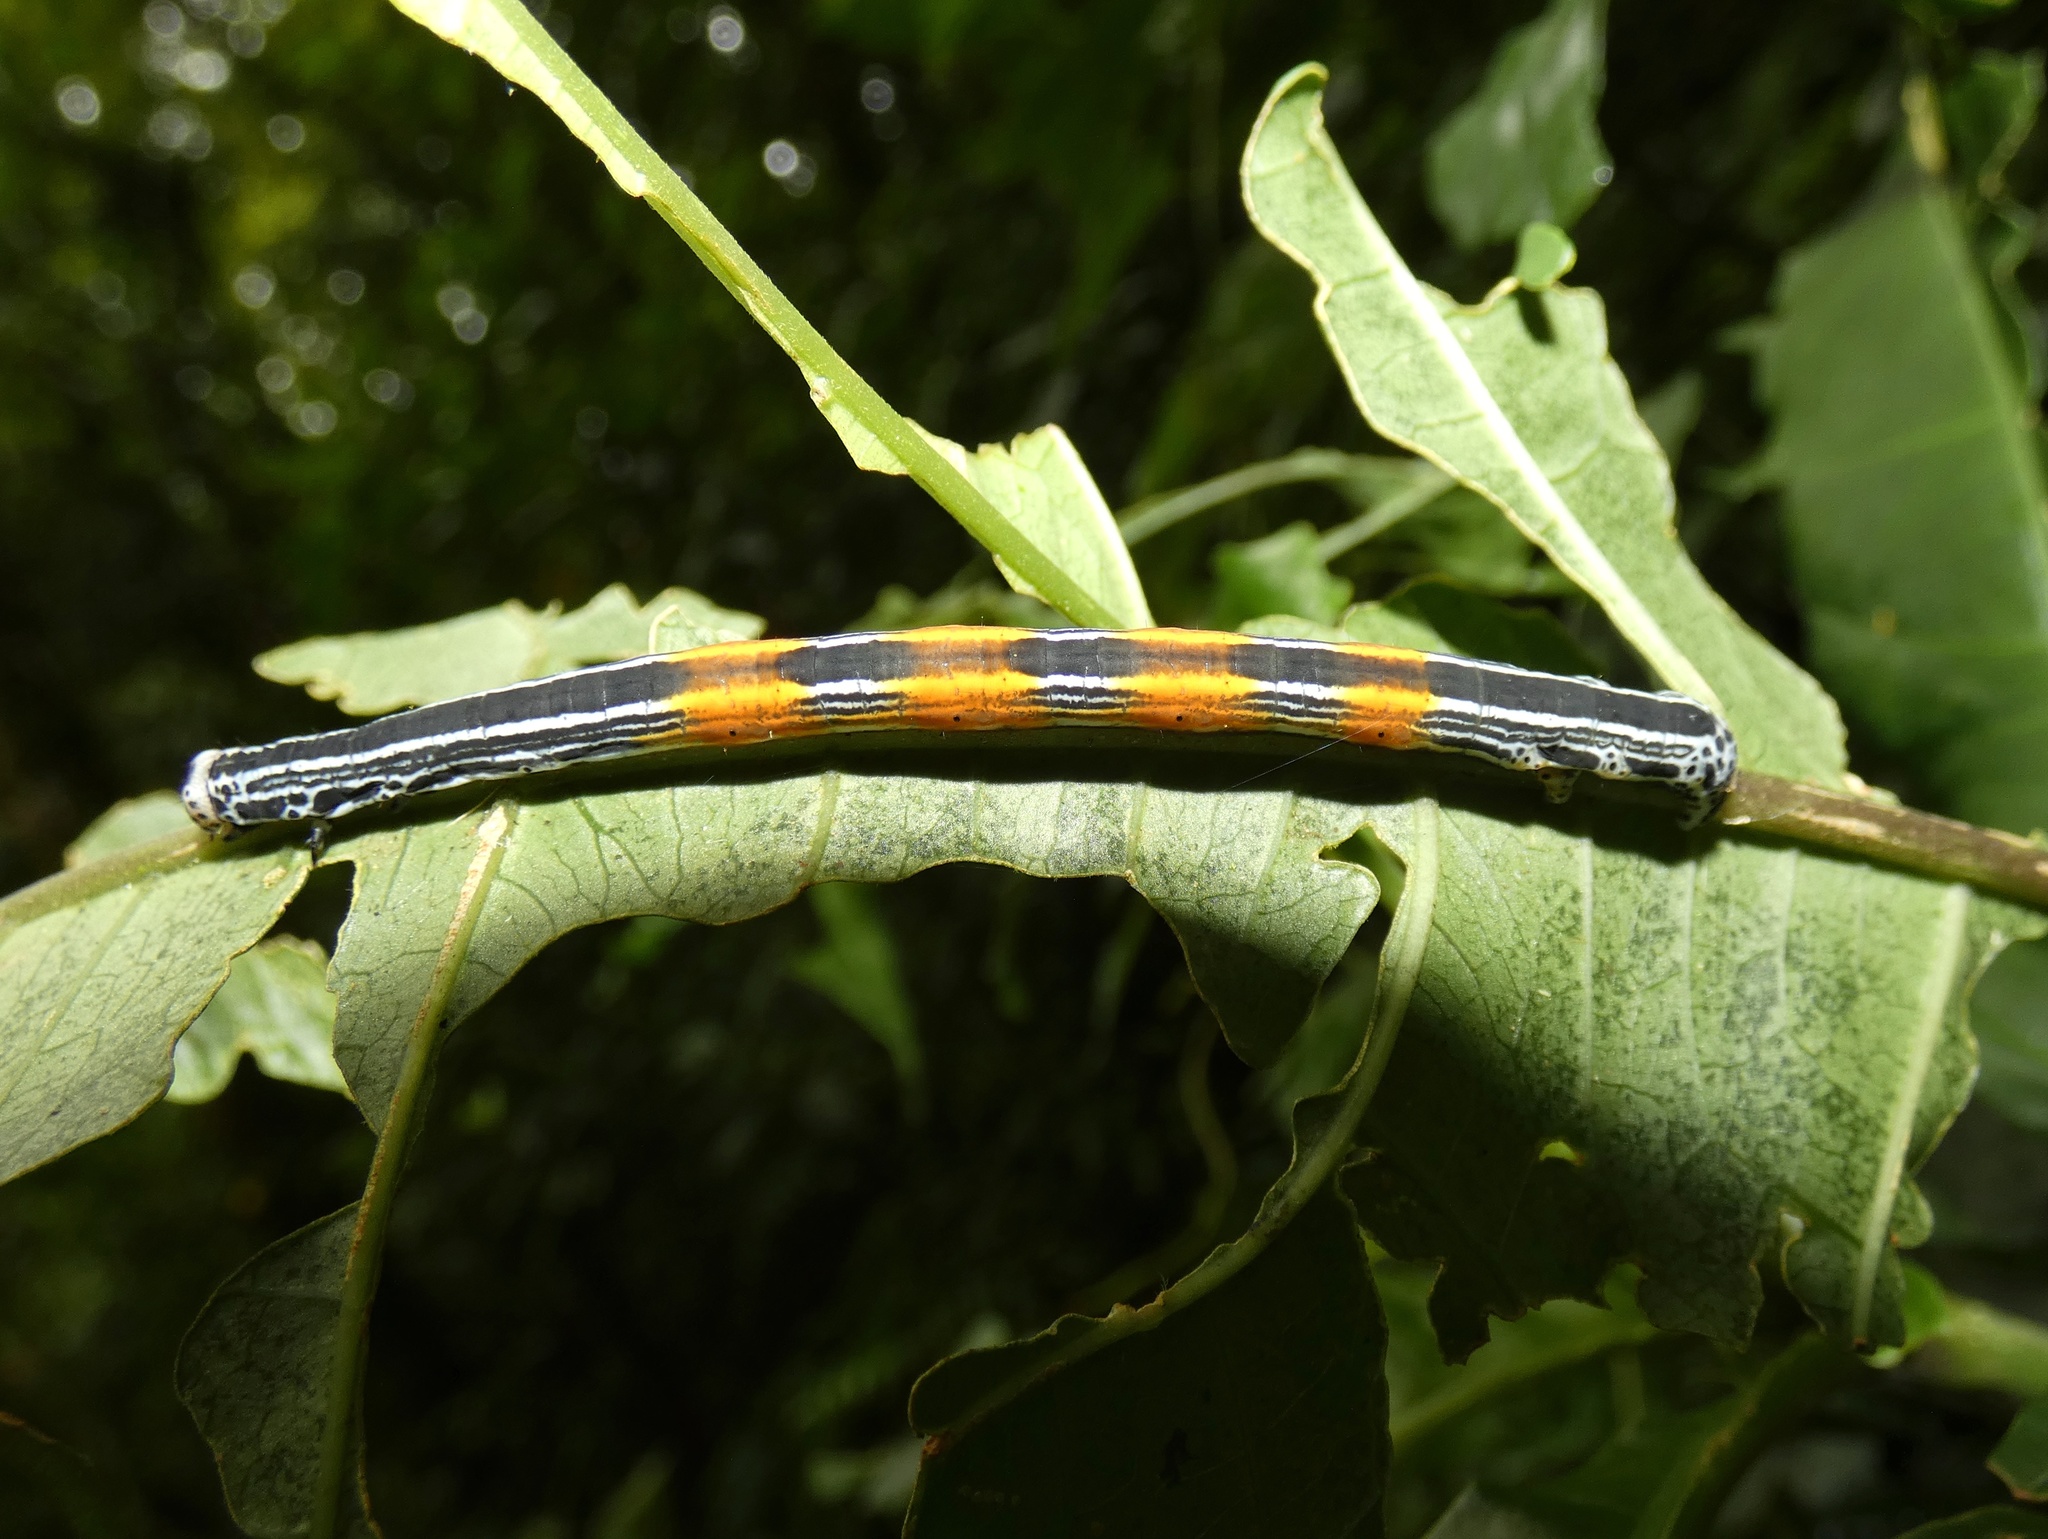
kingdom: Animalia
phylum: Arthropoda
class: Insecta
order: Lepidoptera
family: Geometridae
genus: Simena
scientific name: Simena luctifera
